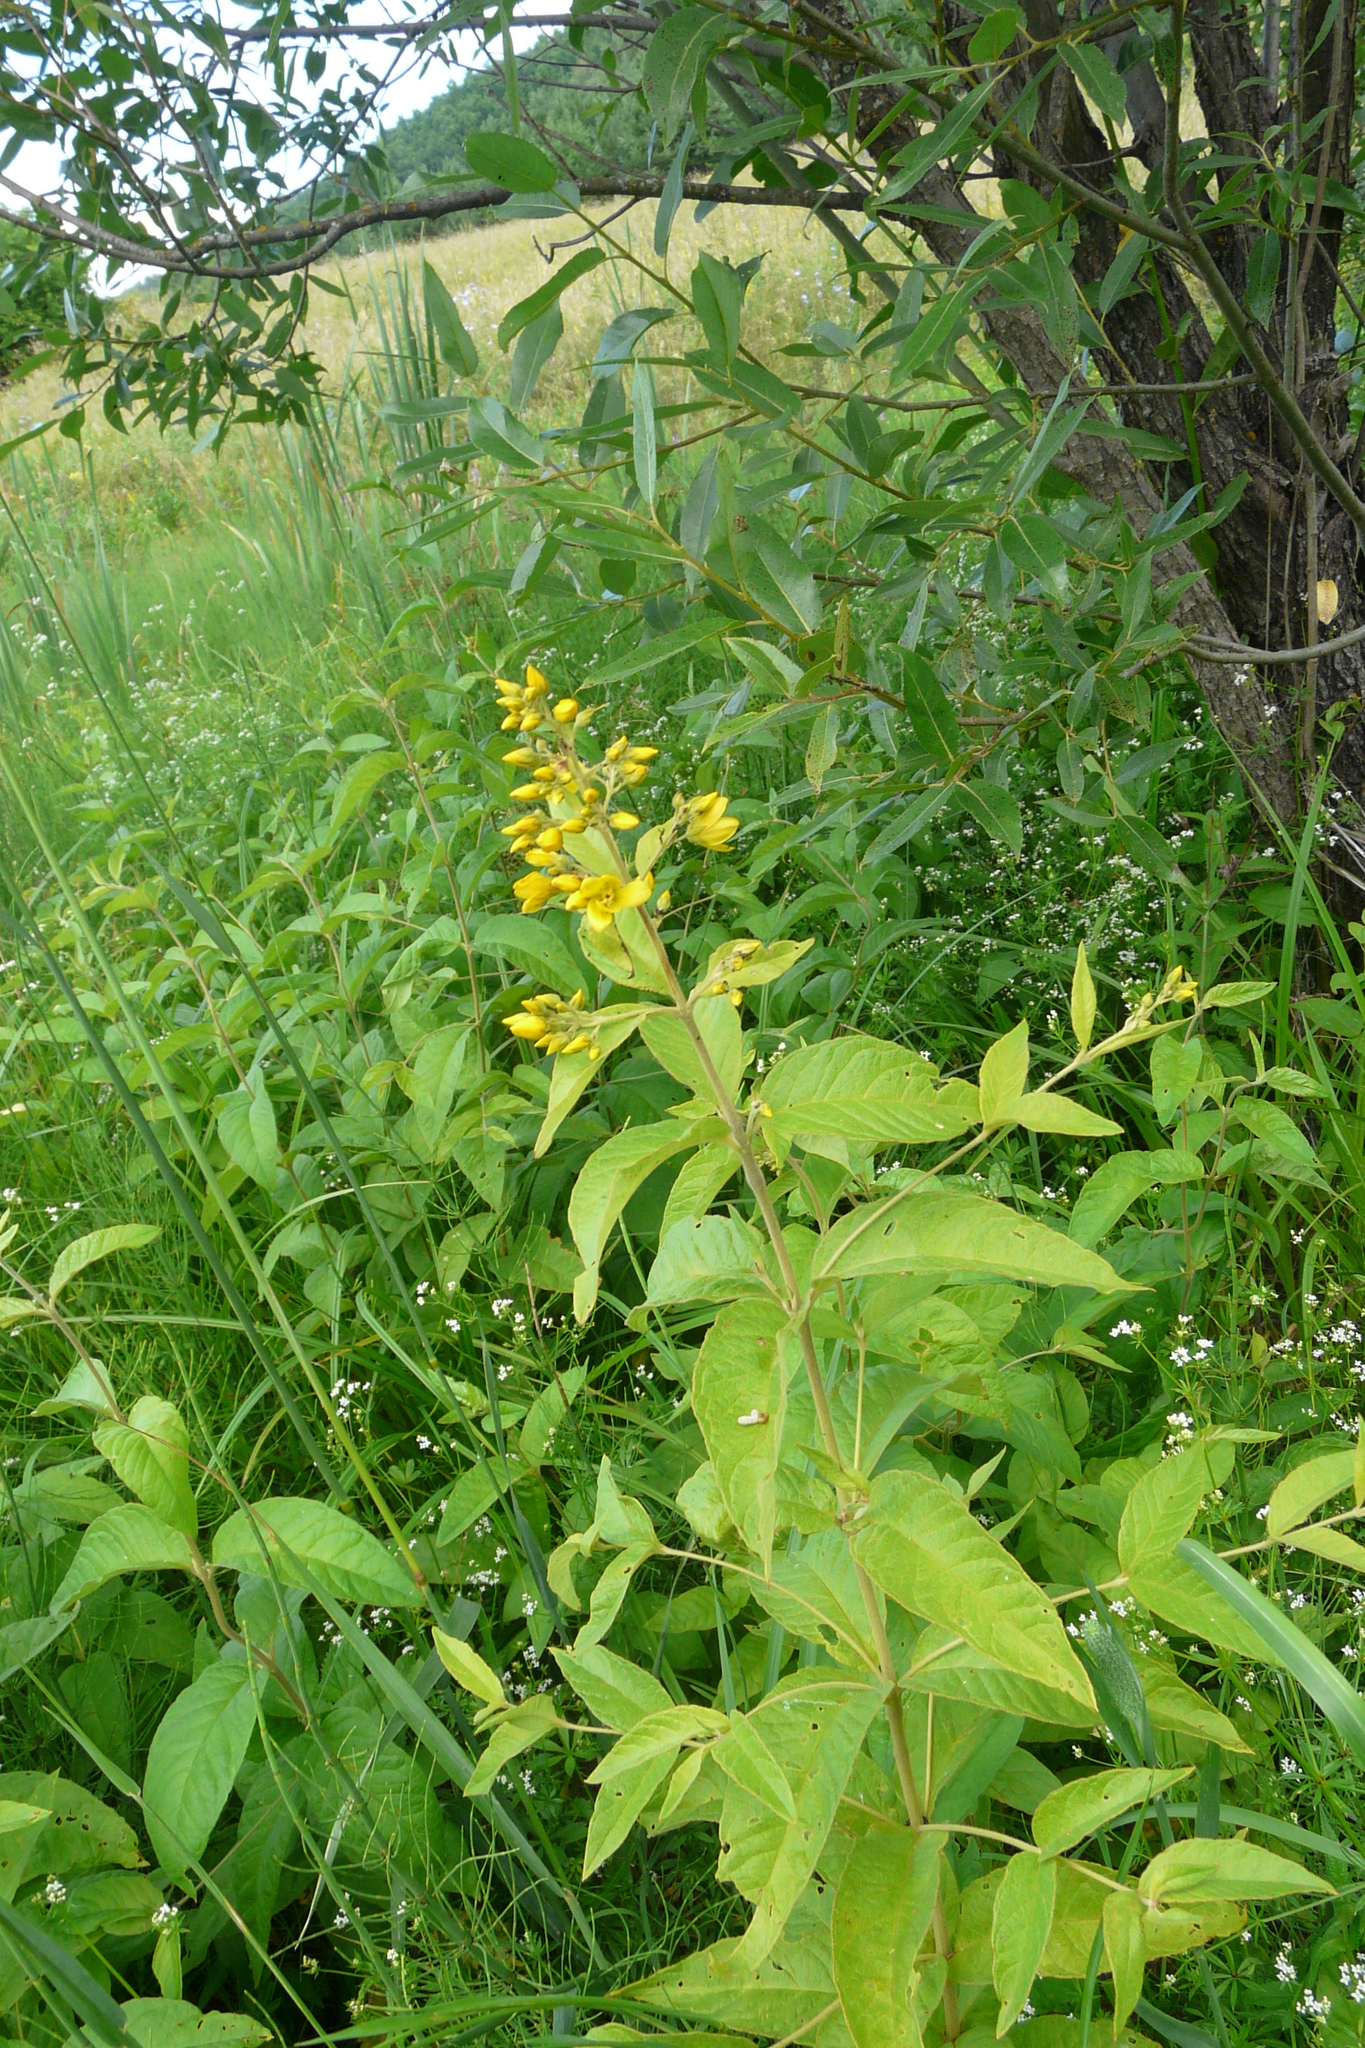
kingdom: Plantae
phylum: Tracheophyta
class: Magnoliopsida
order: Ericales
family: Primulaceae
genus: Lysimachia
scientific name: Lysimachia vulgaris
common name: Yellow loosestrife
